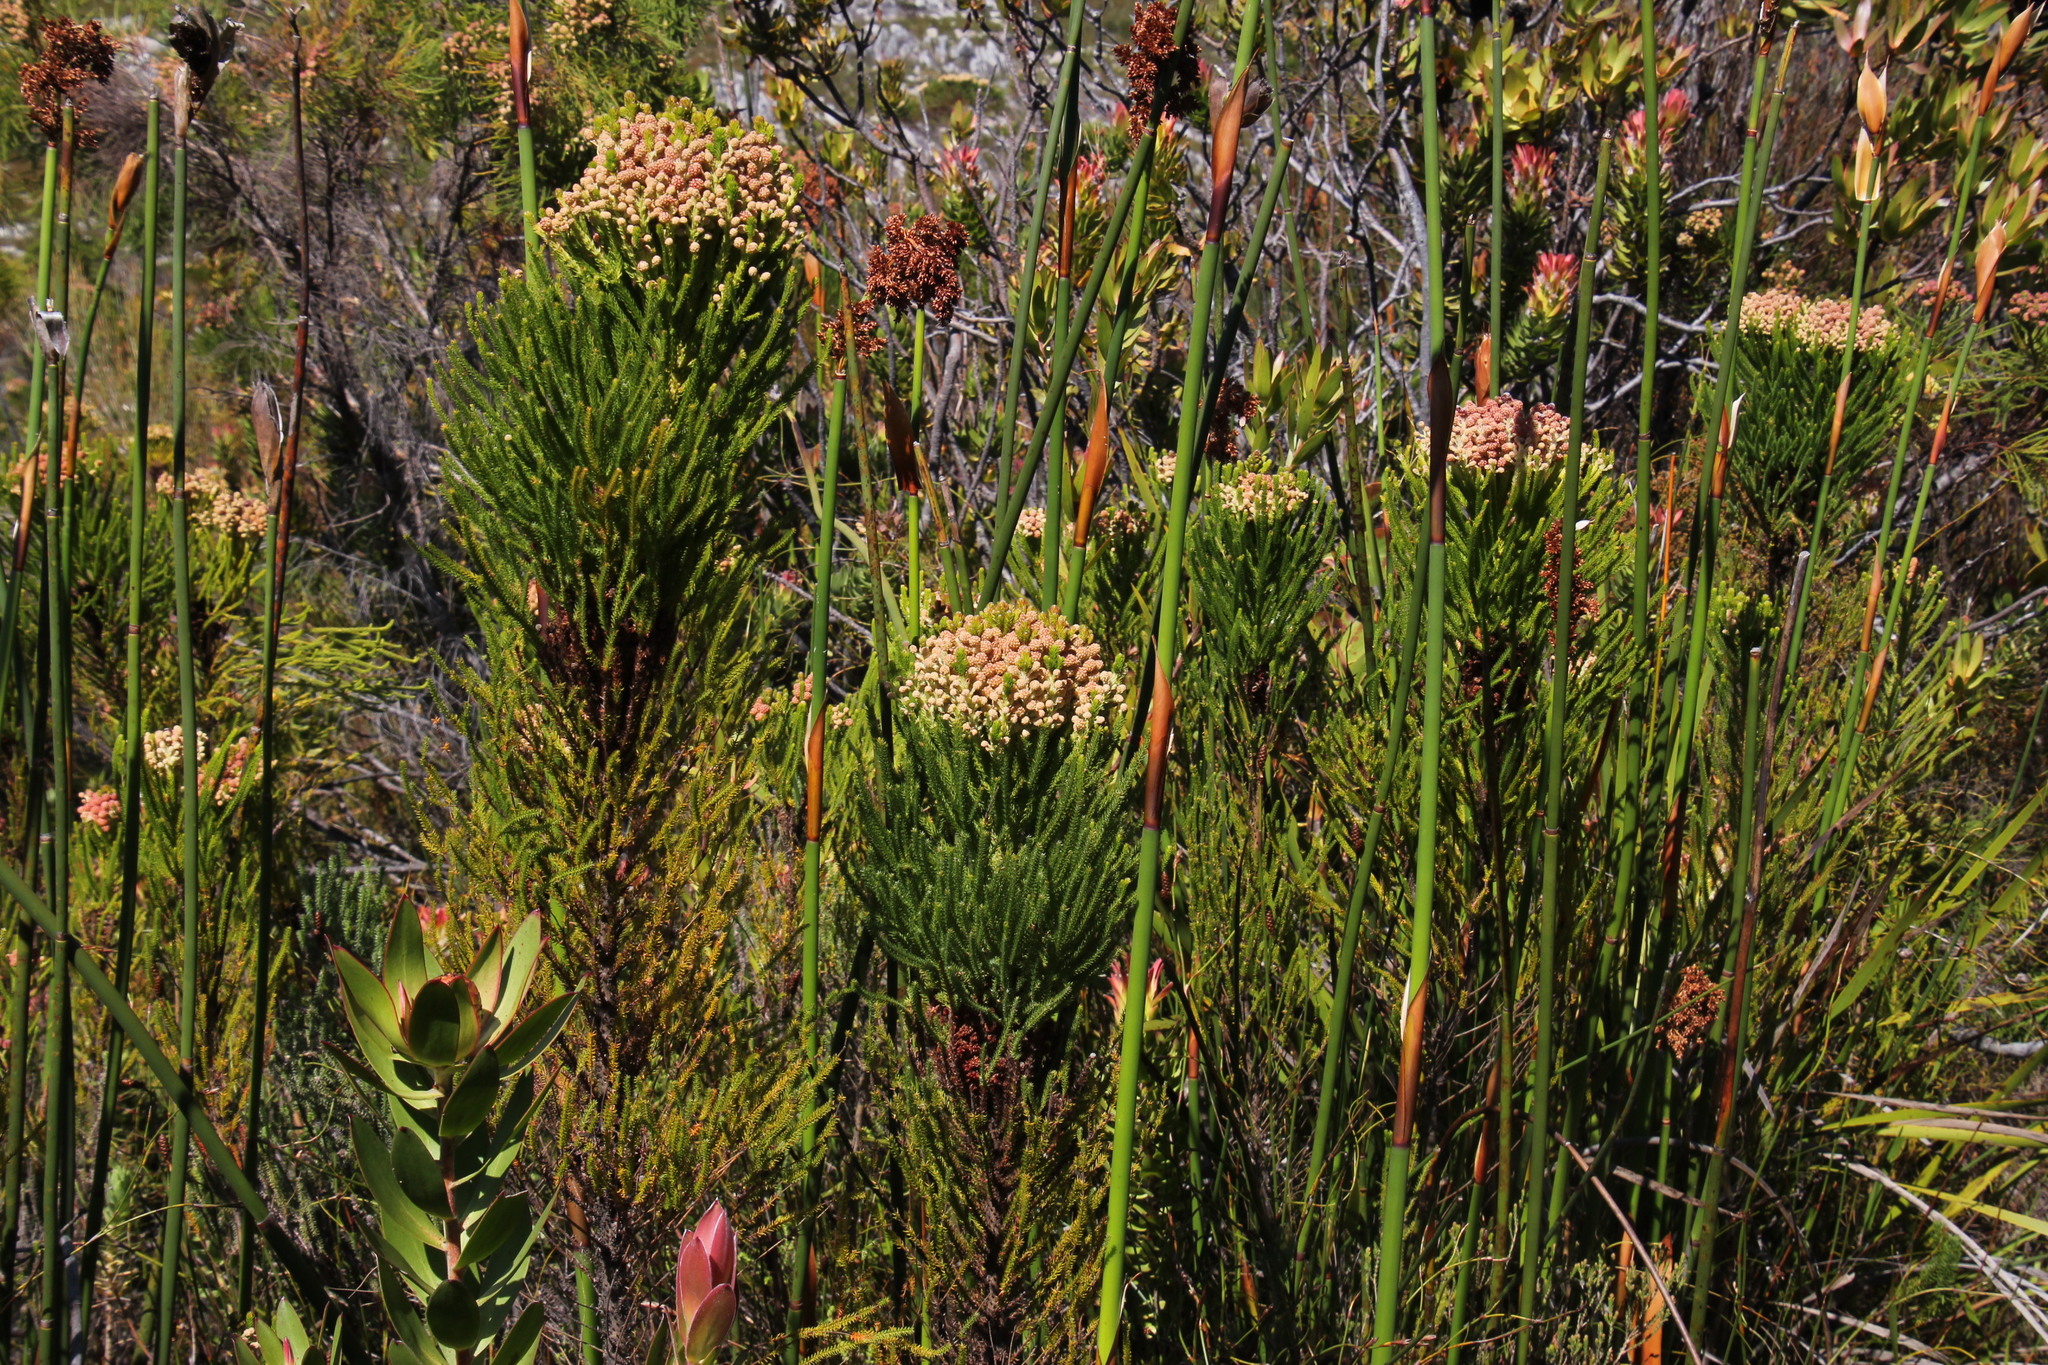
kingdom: Plantae
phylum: Tracheophyta
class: Magnoliopsida
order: Bruniales
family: Bruniaceae
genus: Berzelia
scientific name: Berzelia lanuginosa
